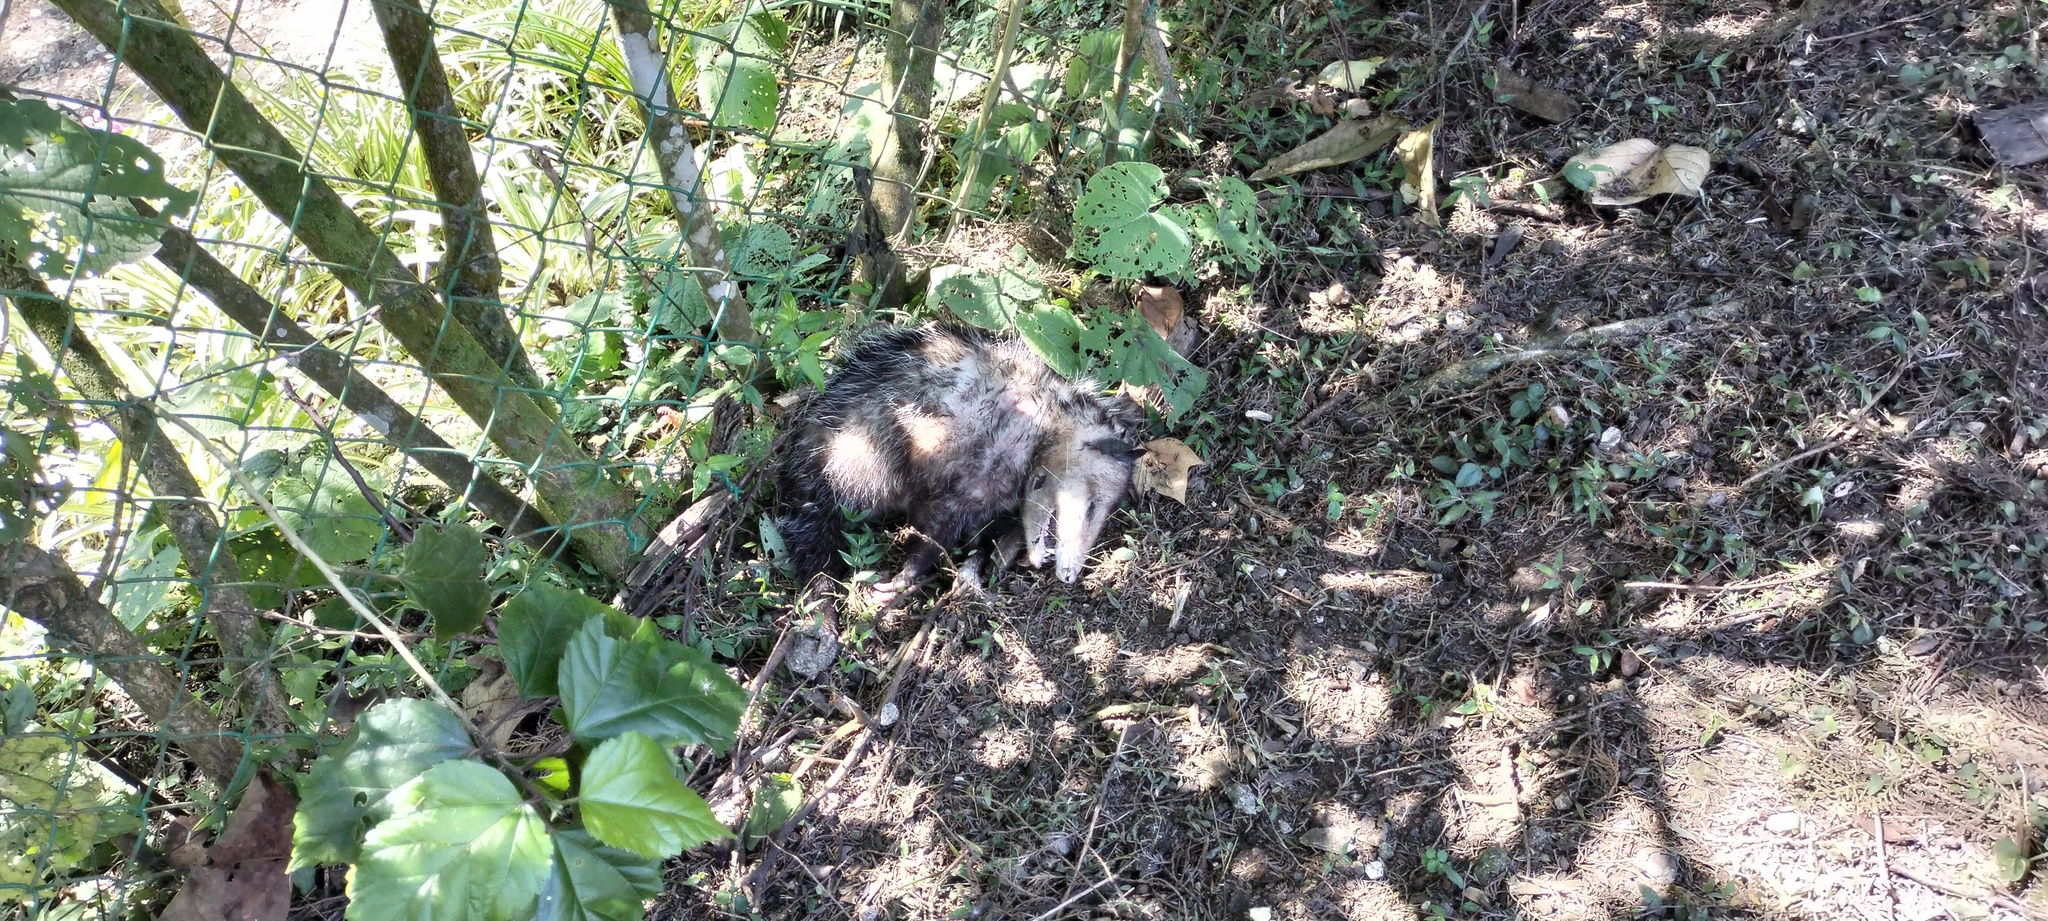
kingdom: Animalia
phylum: Chordata
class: Mammalia
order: Didelphimorphia
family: Didelphidae
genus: Didelphis
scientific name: Didelphis
